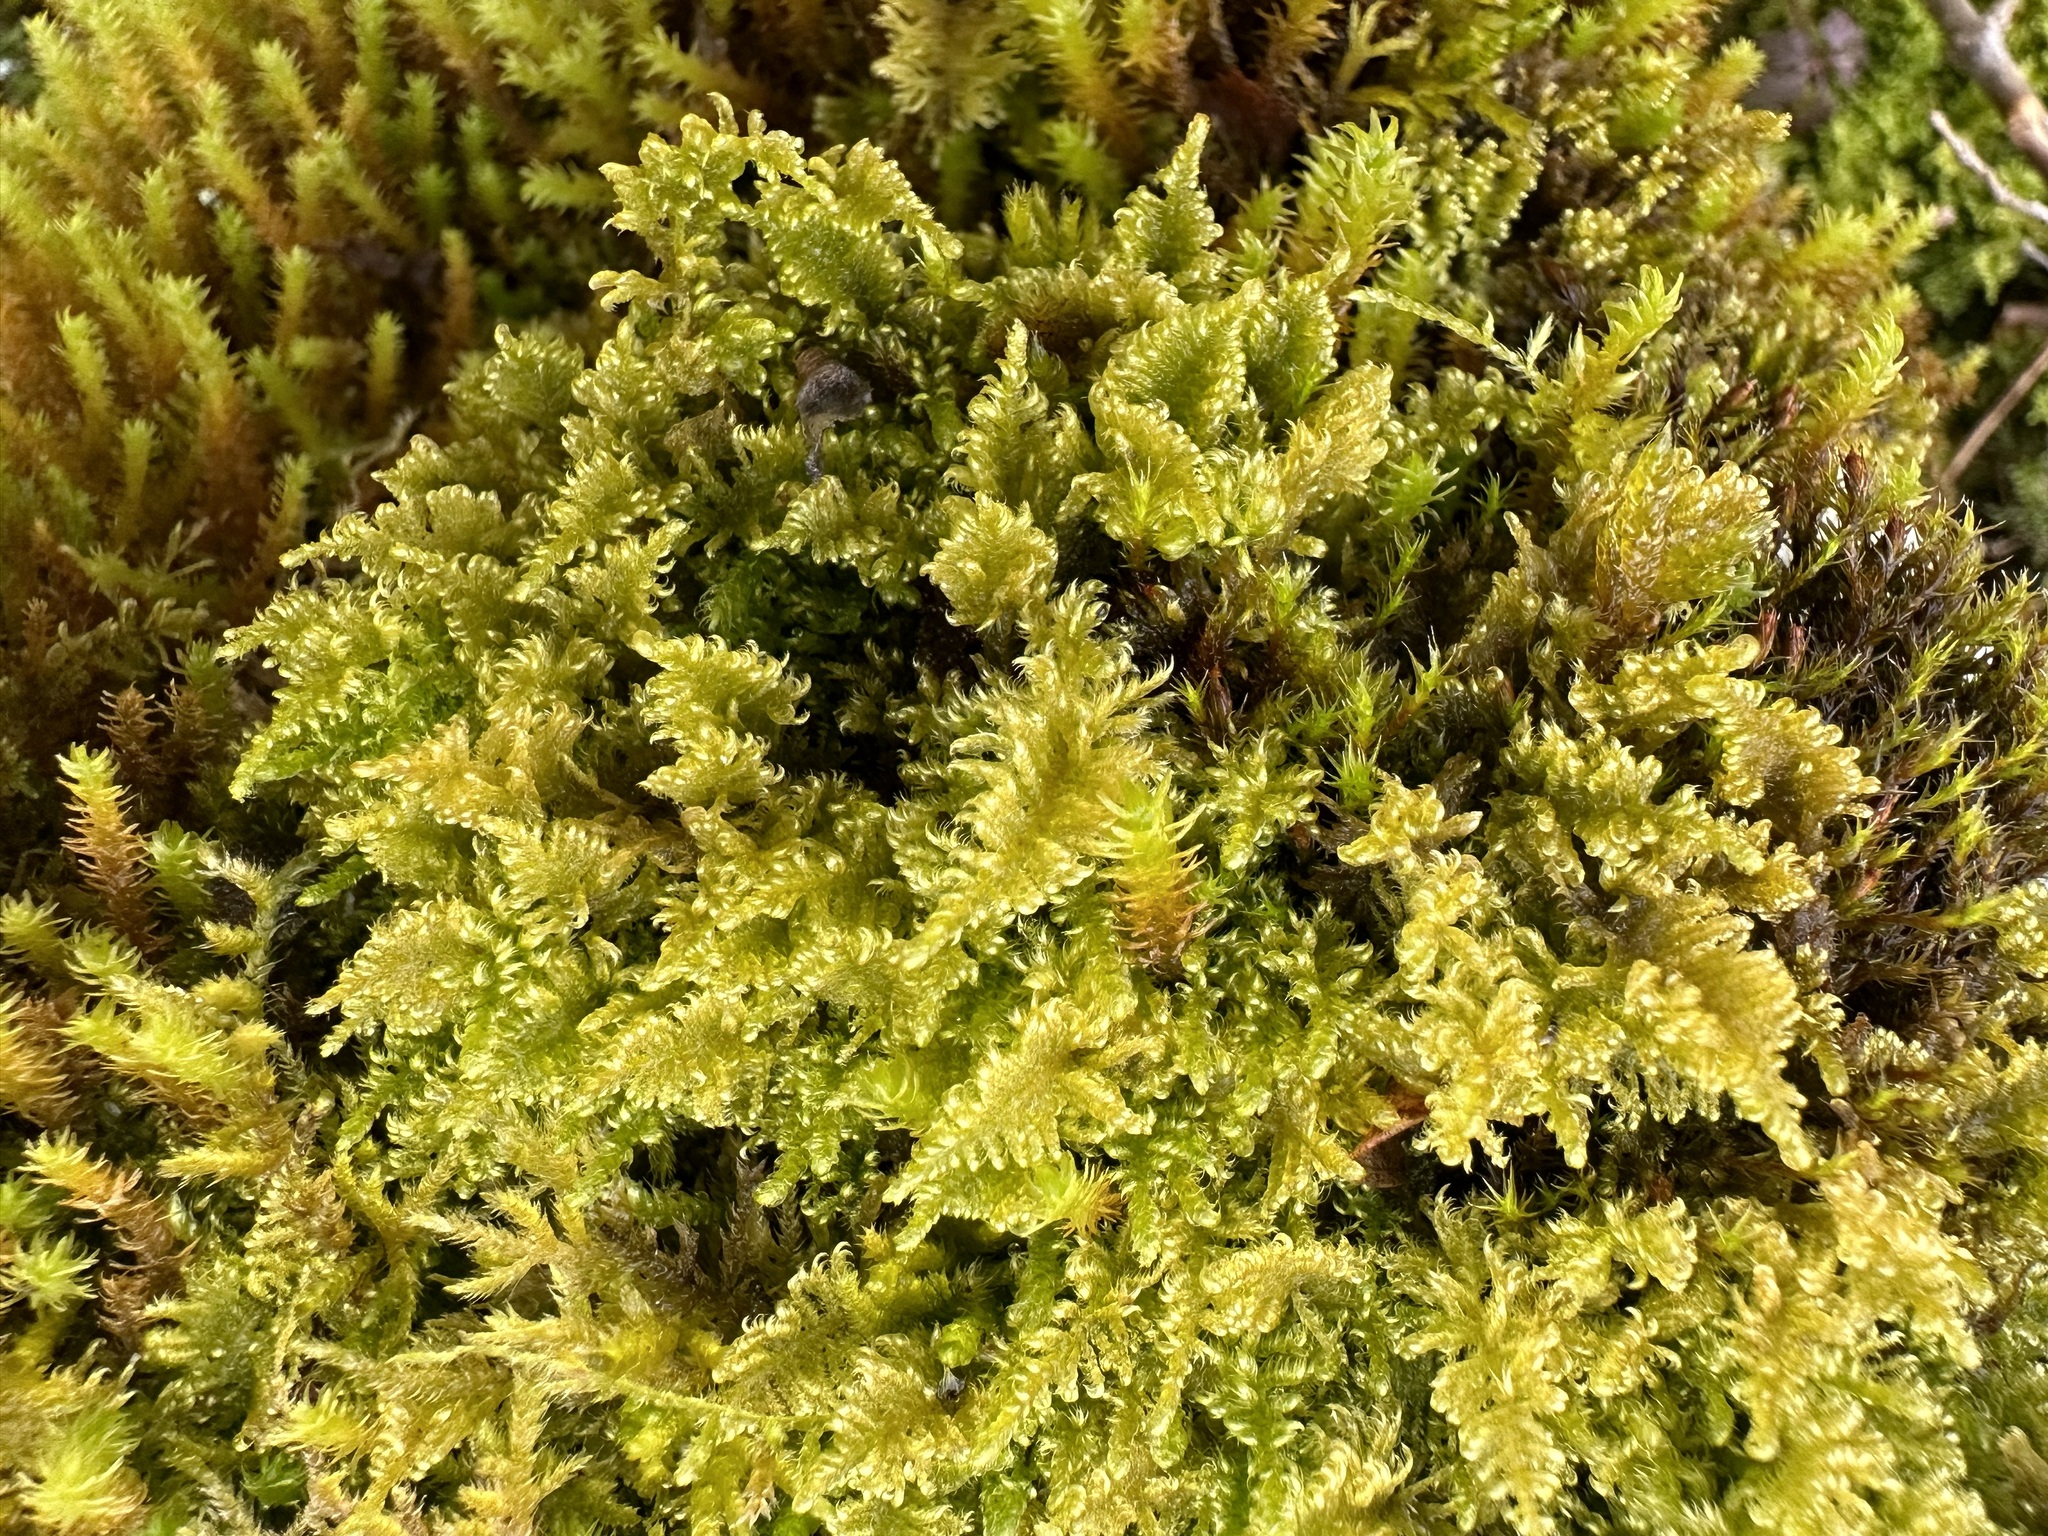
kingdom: Plantae
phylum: Bryophyta
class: Bryopsida
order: Hypnales
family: Myuriaceae
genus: Ctenidium
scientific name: Ctenidium molluscum
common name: Chalk comb-moss
